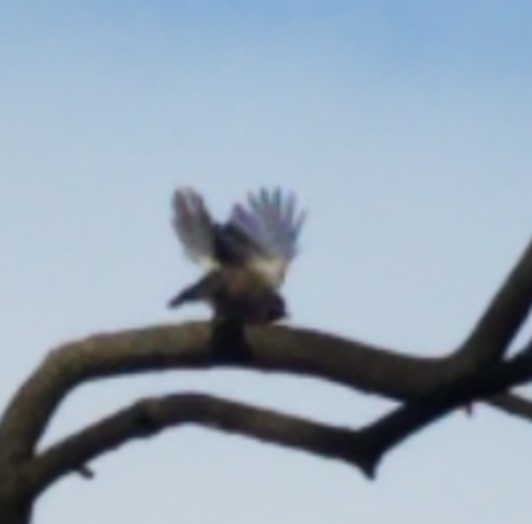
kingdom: Animalia
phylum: Chordata
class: Aves
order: Passeriformes
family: Paridae
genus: Poecile
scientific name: Poecile atricapillus
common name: Black-capped chickadee
